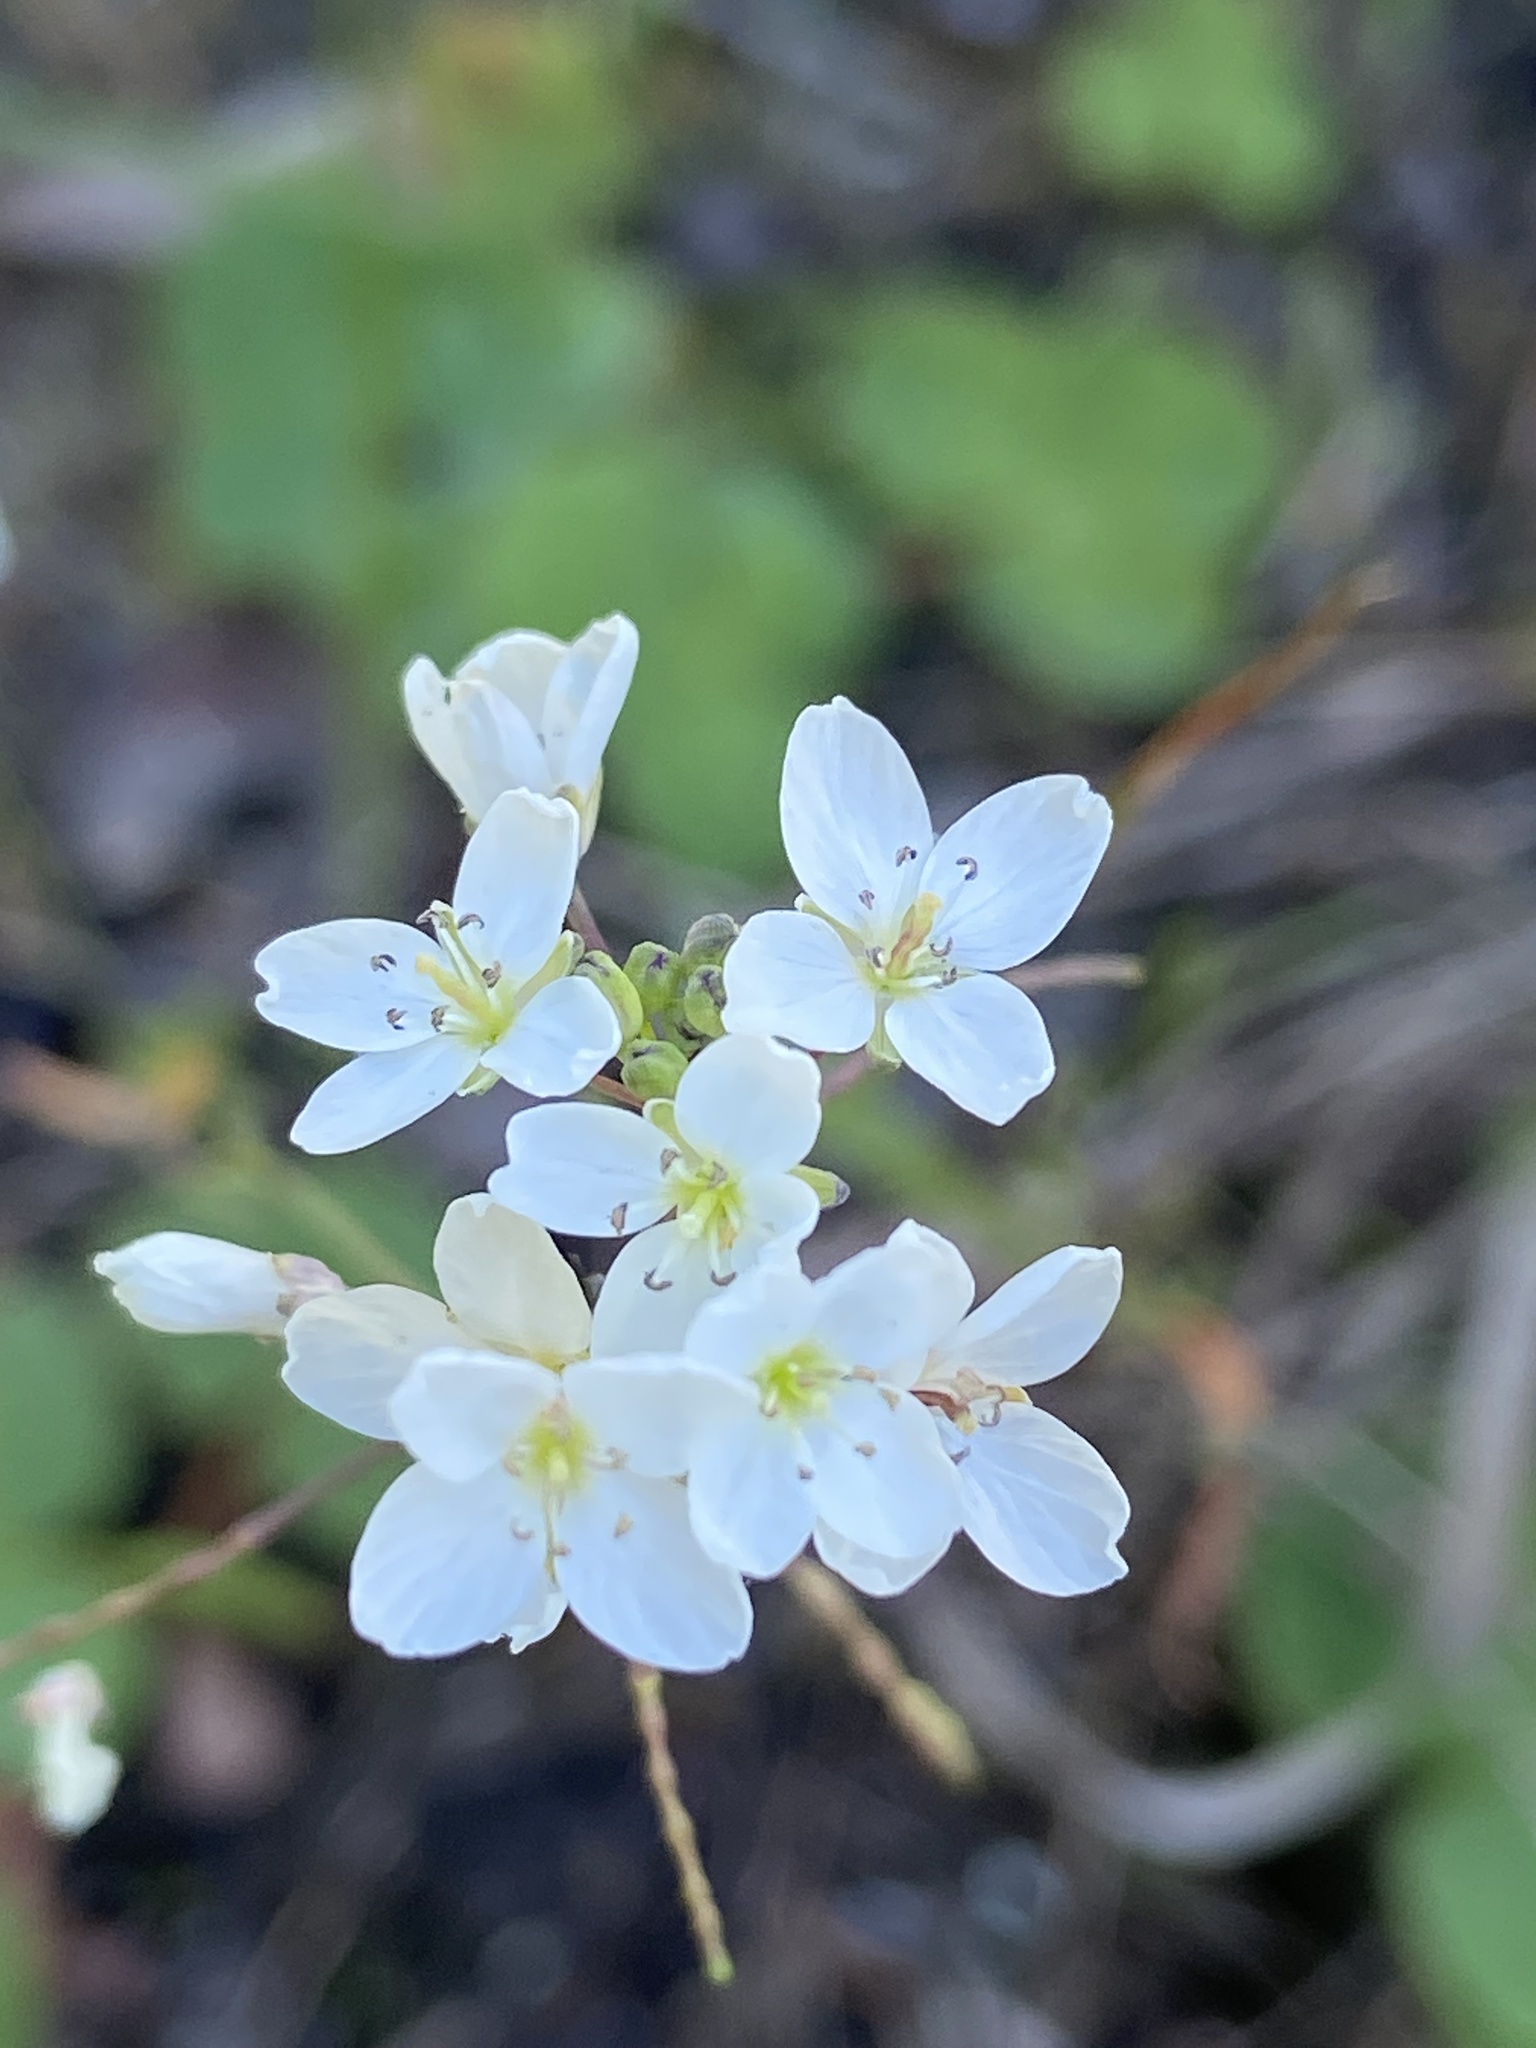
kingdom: Plantae
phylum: Tracheophyta
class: Magnoliopsida
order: Brassicales
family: Brassicaceae
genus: Heliophila
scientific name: Heliophila pusilla
